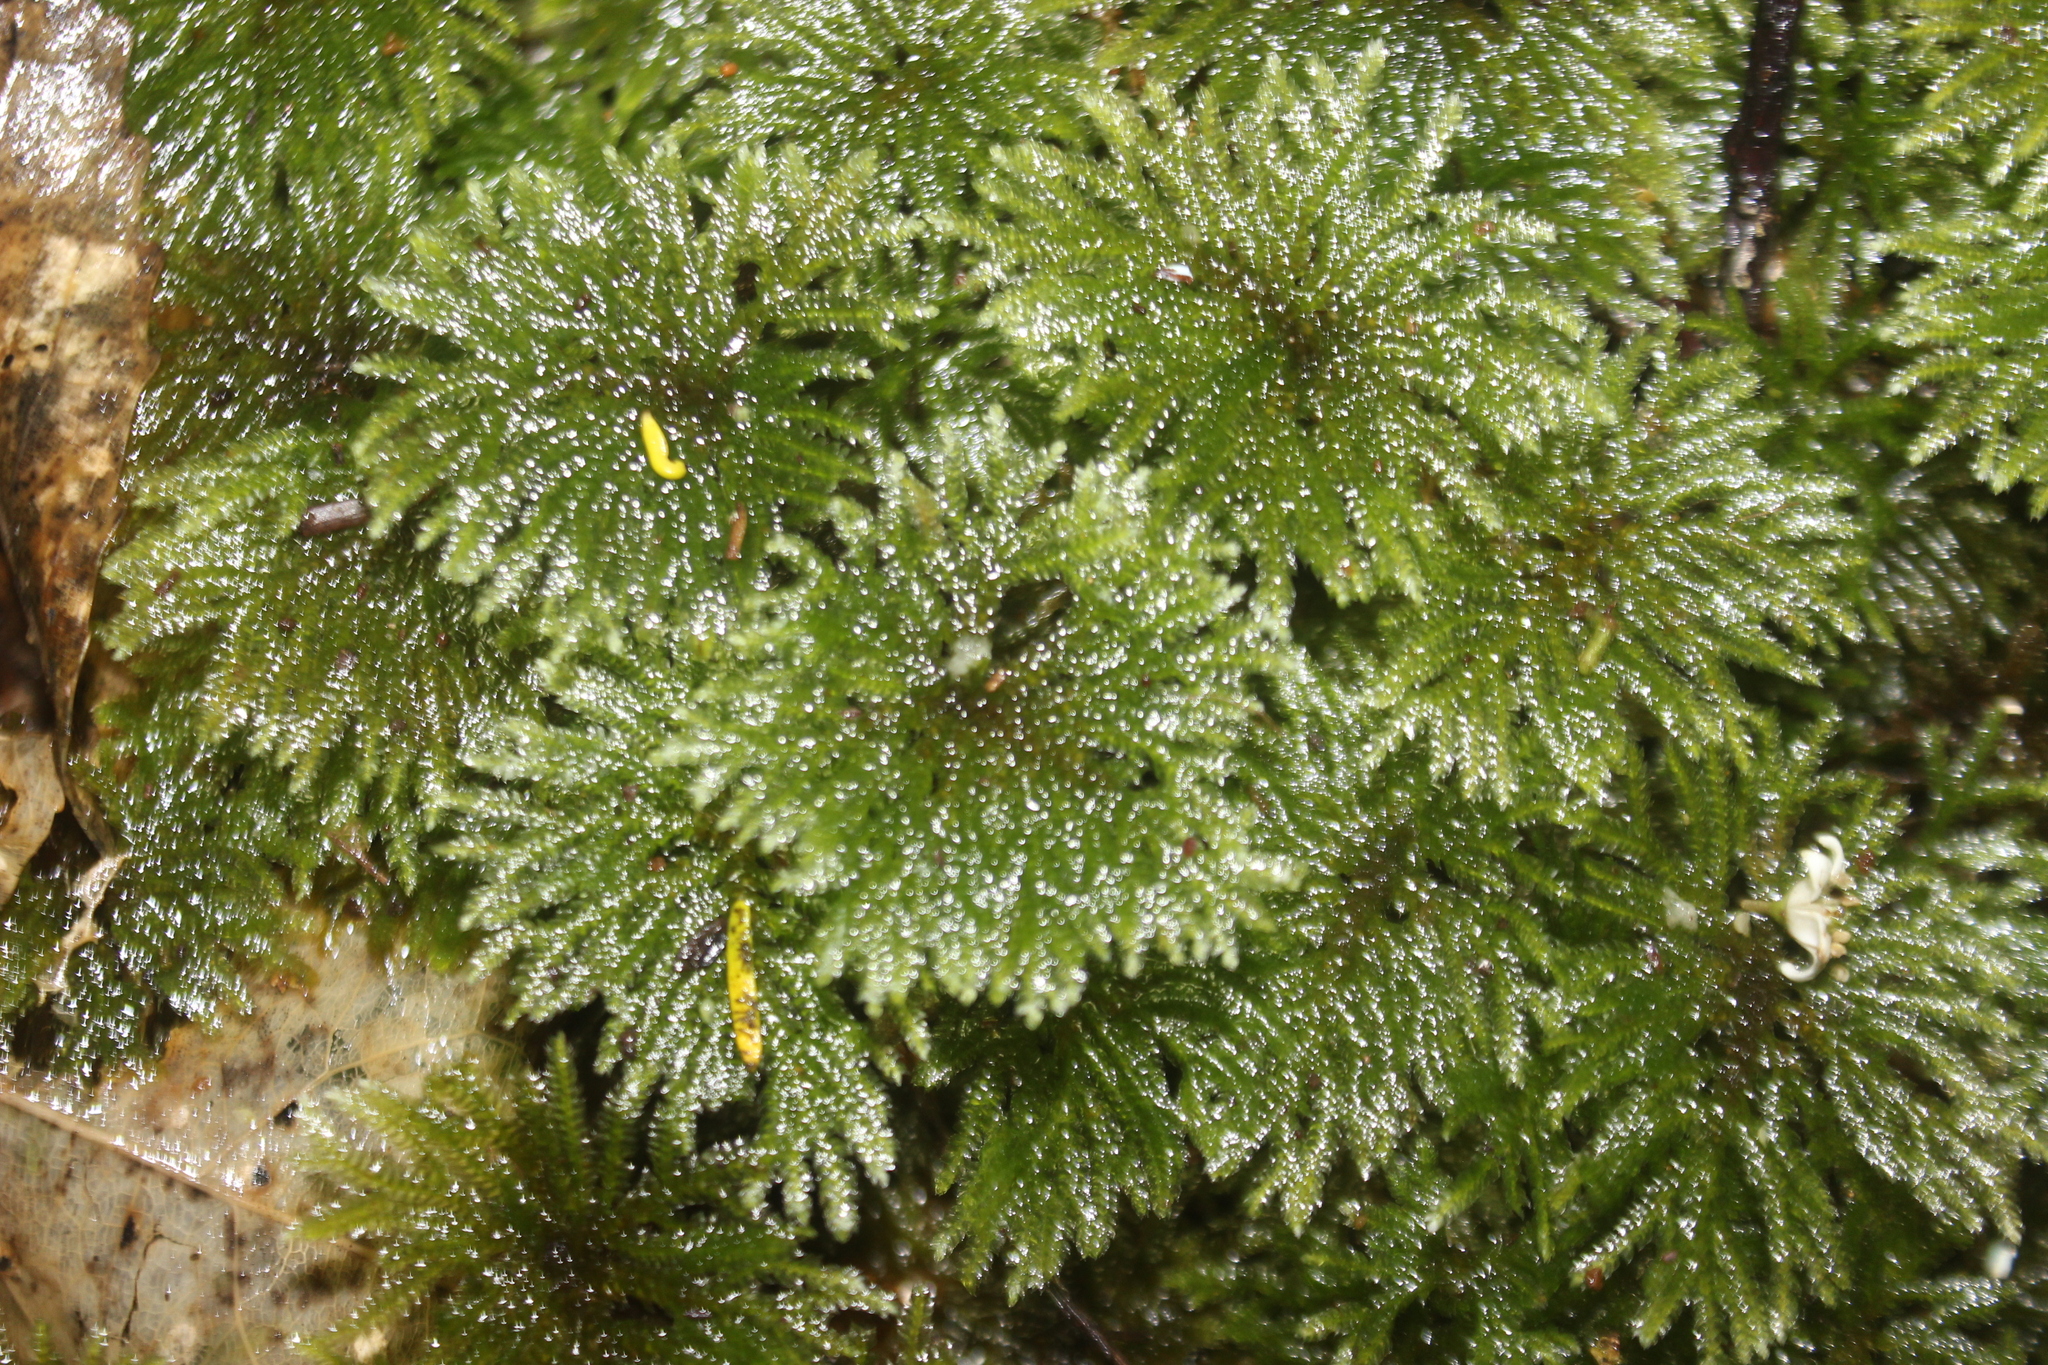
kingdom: Plantae
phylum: Bryophyta
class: Bryopsida
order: Hypopterygiales
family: Hypopterygiaceae
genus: Canalohypopterygium
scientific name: Canalohypopterygium tamariscinum
